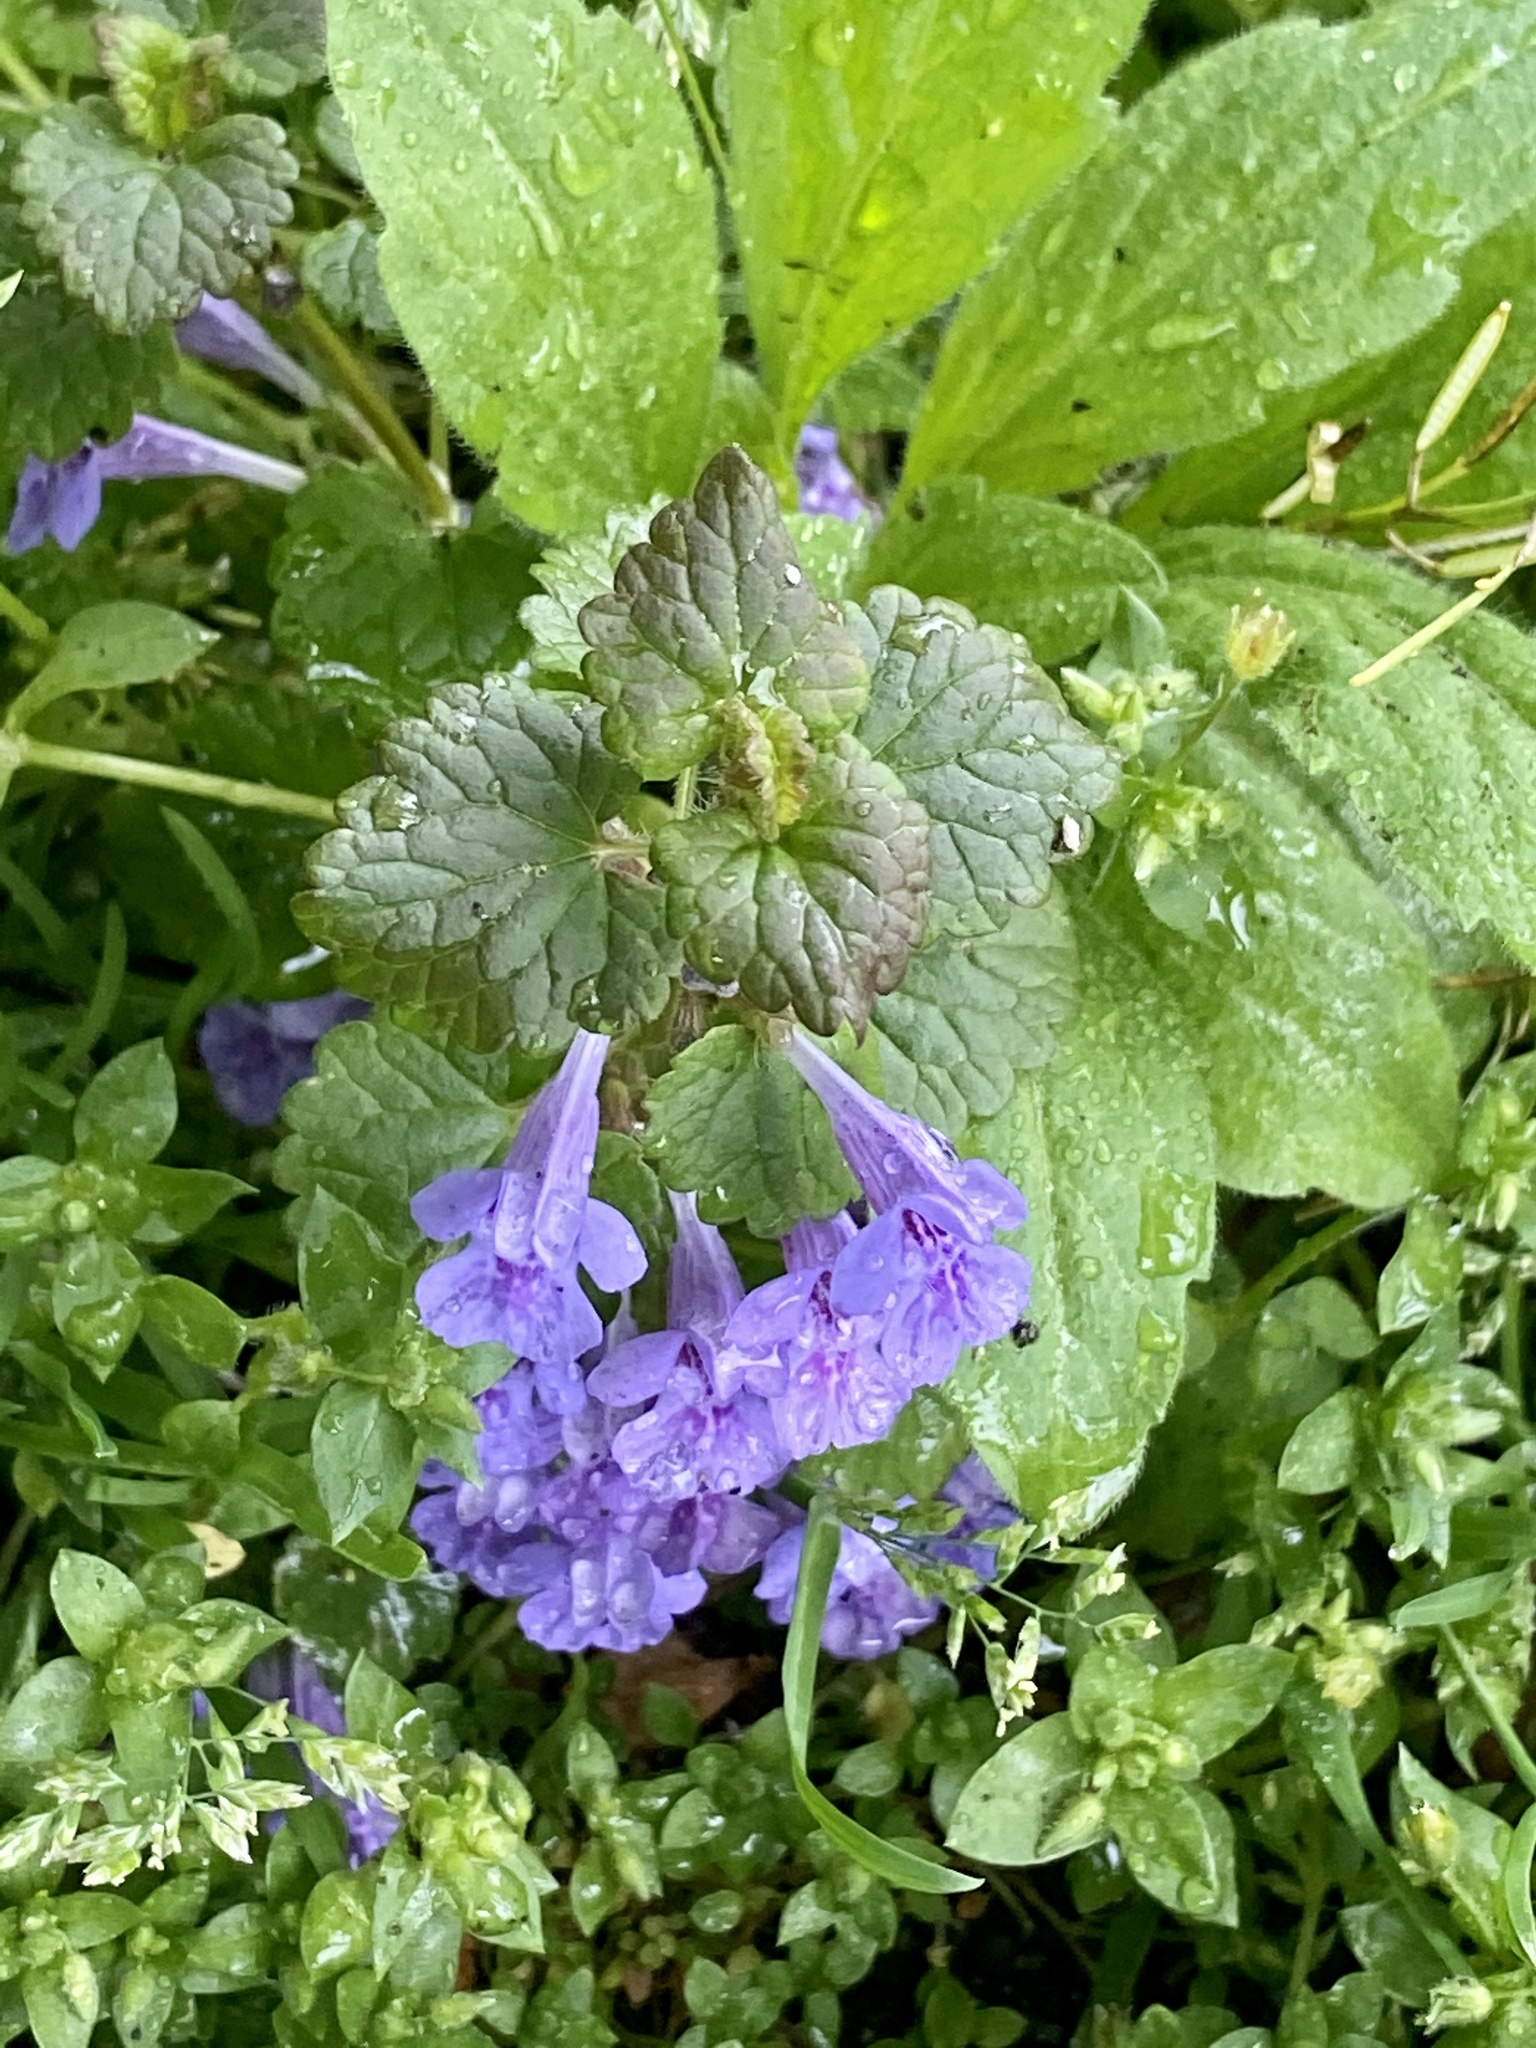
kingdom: Plantae
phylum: Tracheophyta
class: Magnoliopsida
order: Lamiales
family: Lamiaceae
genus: Glechoma
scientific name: Glechoma hederacea
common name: Ground ivy
